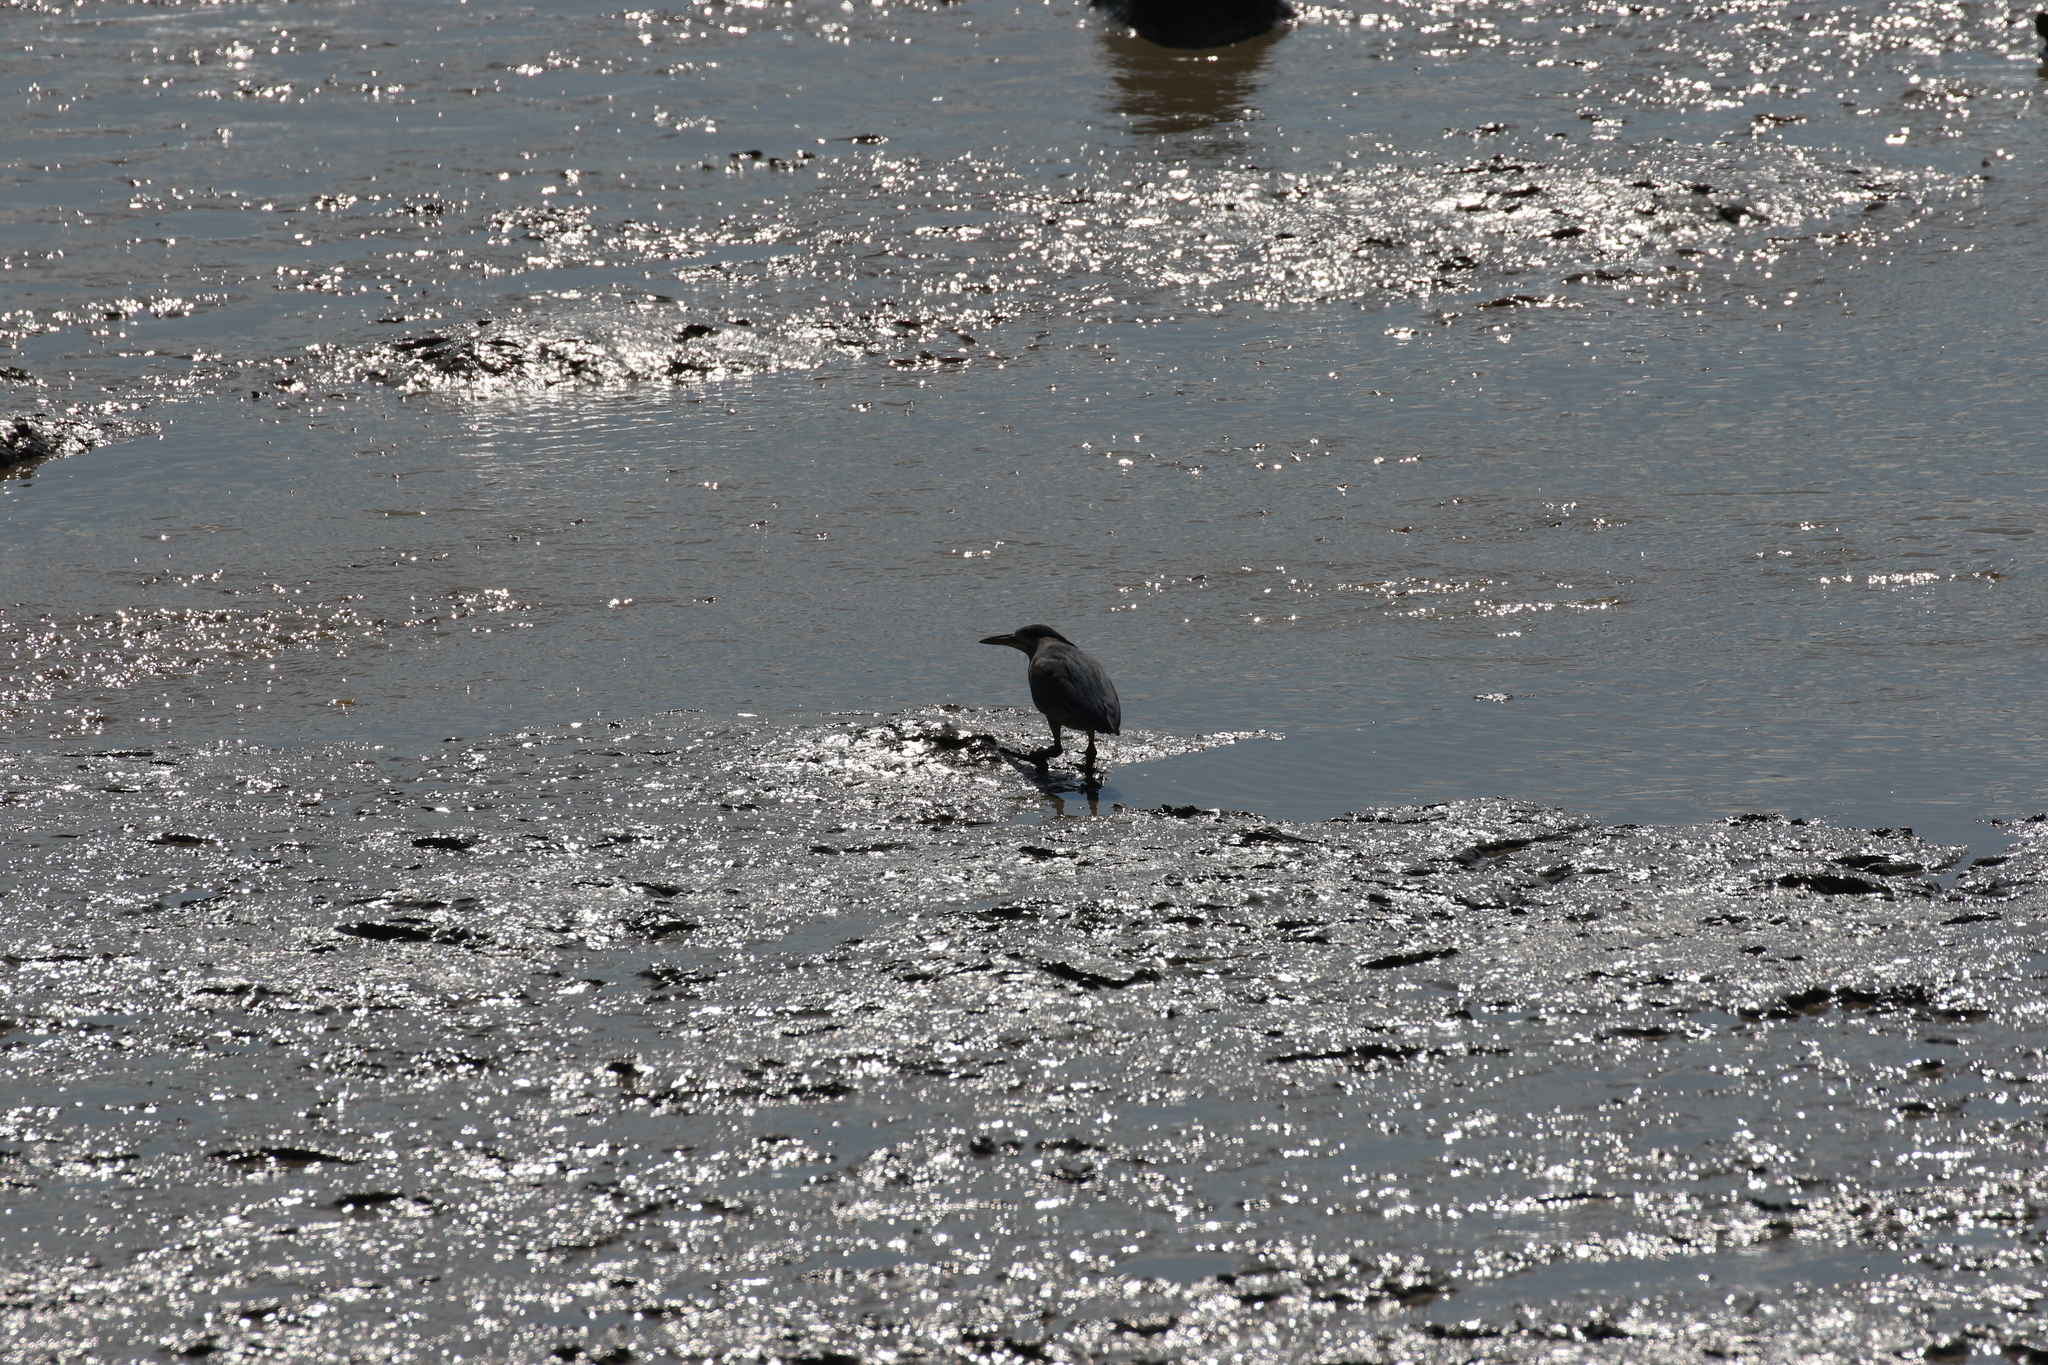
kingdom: Animalia
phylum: Chordata
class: Aves
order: Pelecaniformes
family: Ardeidae
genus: Butorides
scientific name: Butorides striata
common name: Striated heron
